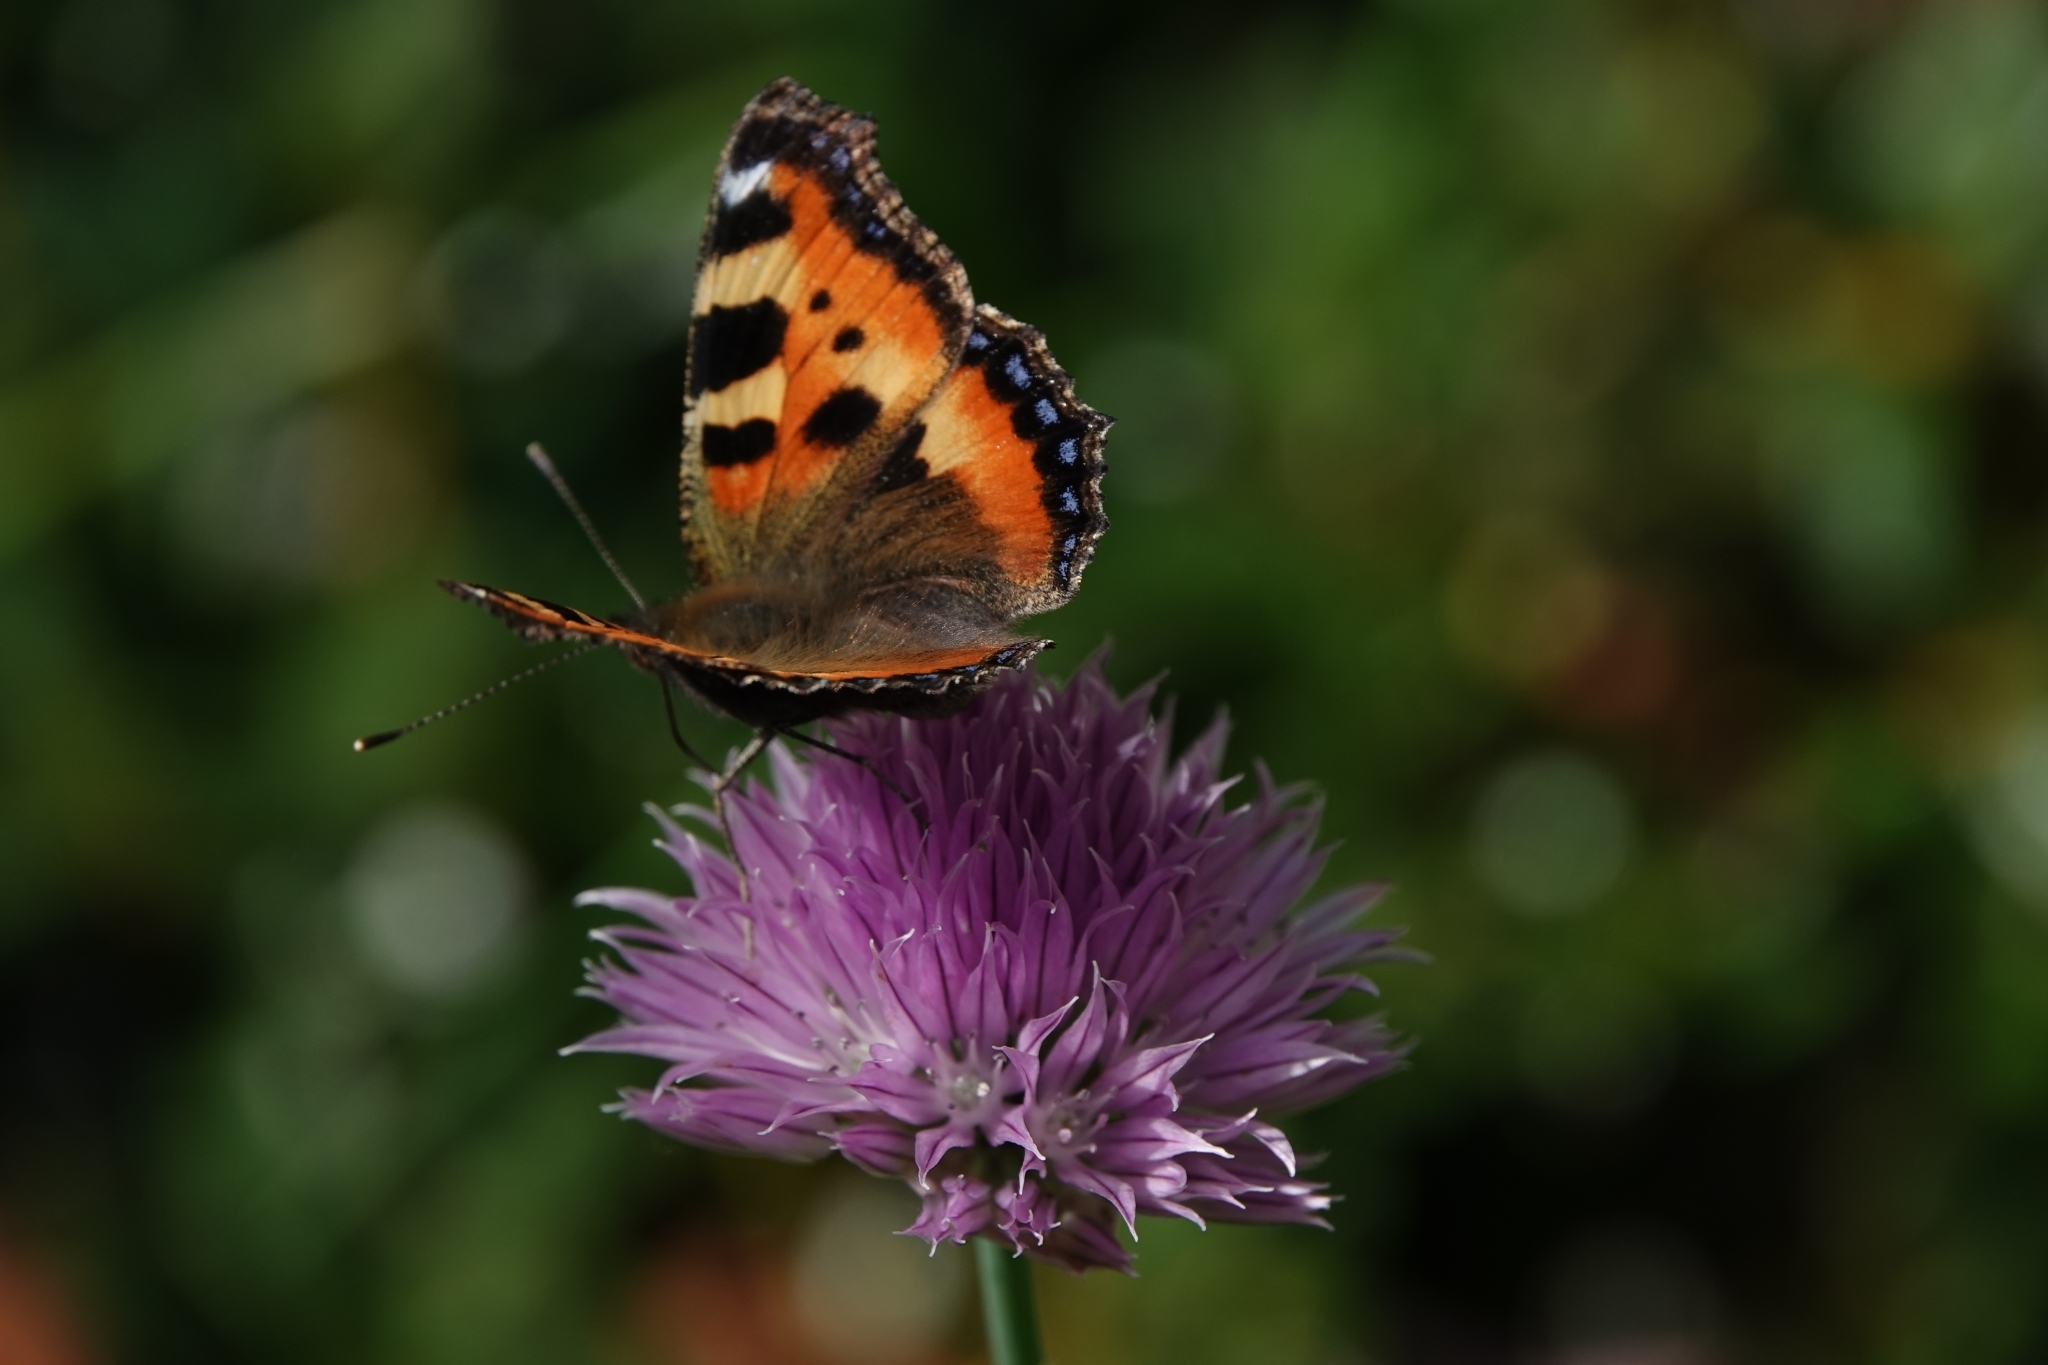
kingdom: Animalia
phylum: Arthropoda
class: Insecta
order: Lepidoptera
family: Nymphalidae
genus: Aglais
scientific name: Aglais urticae
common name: Small tortoiseshell
